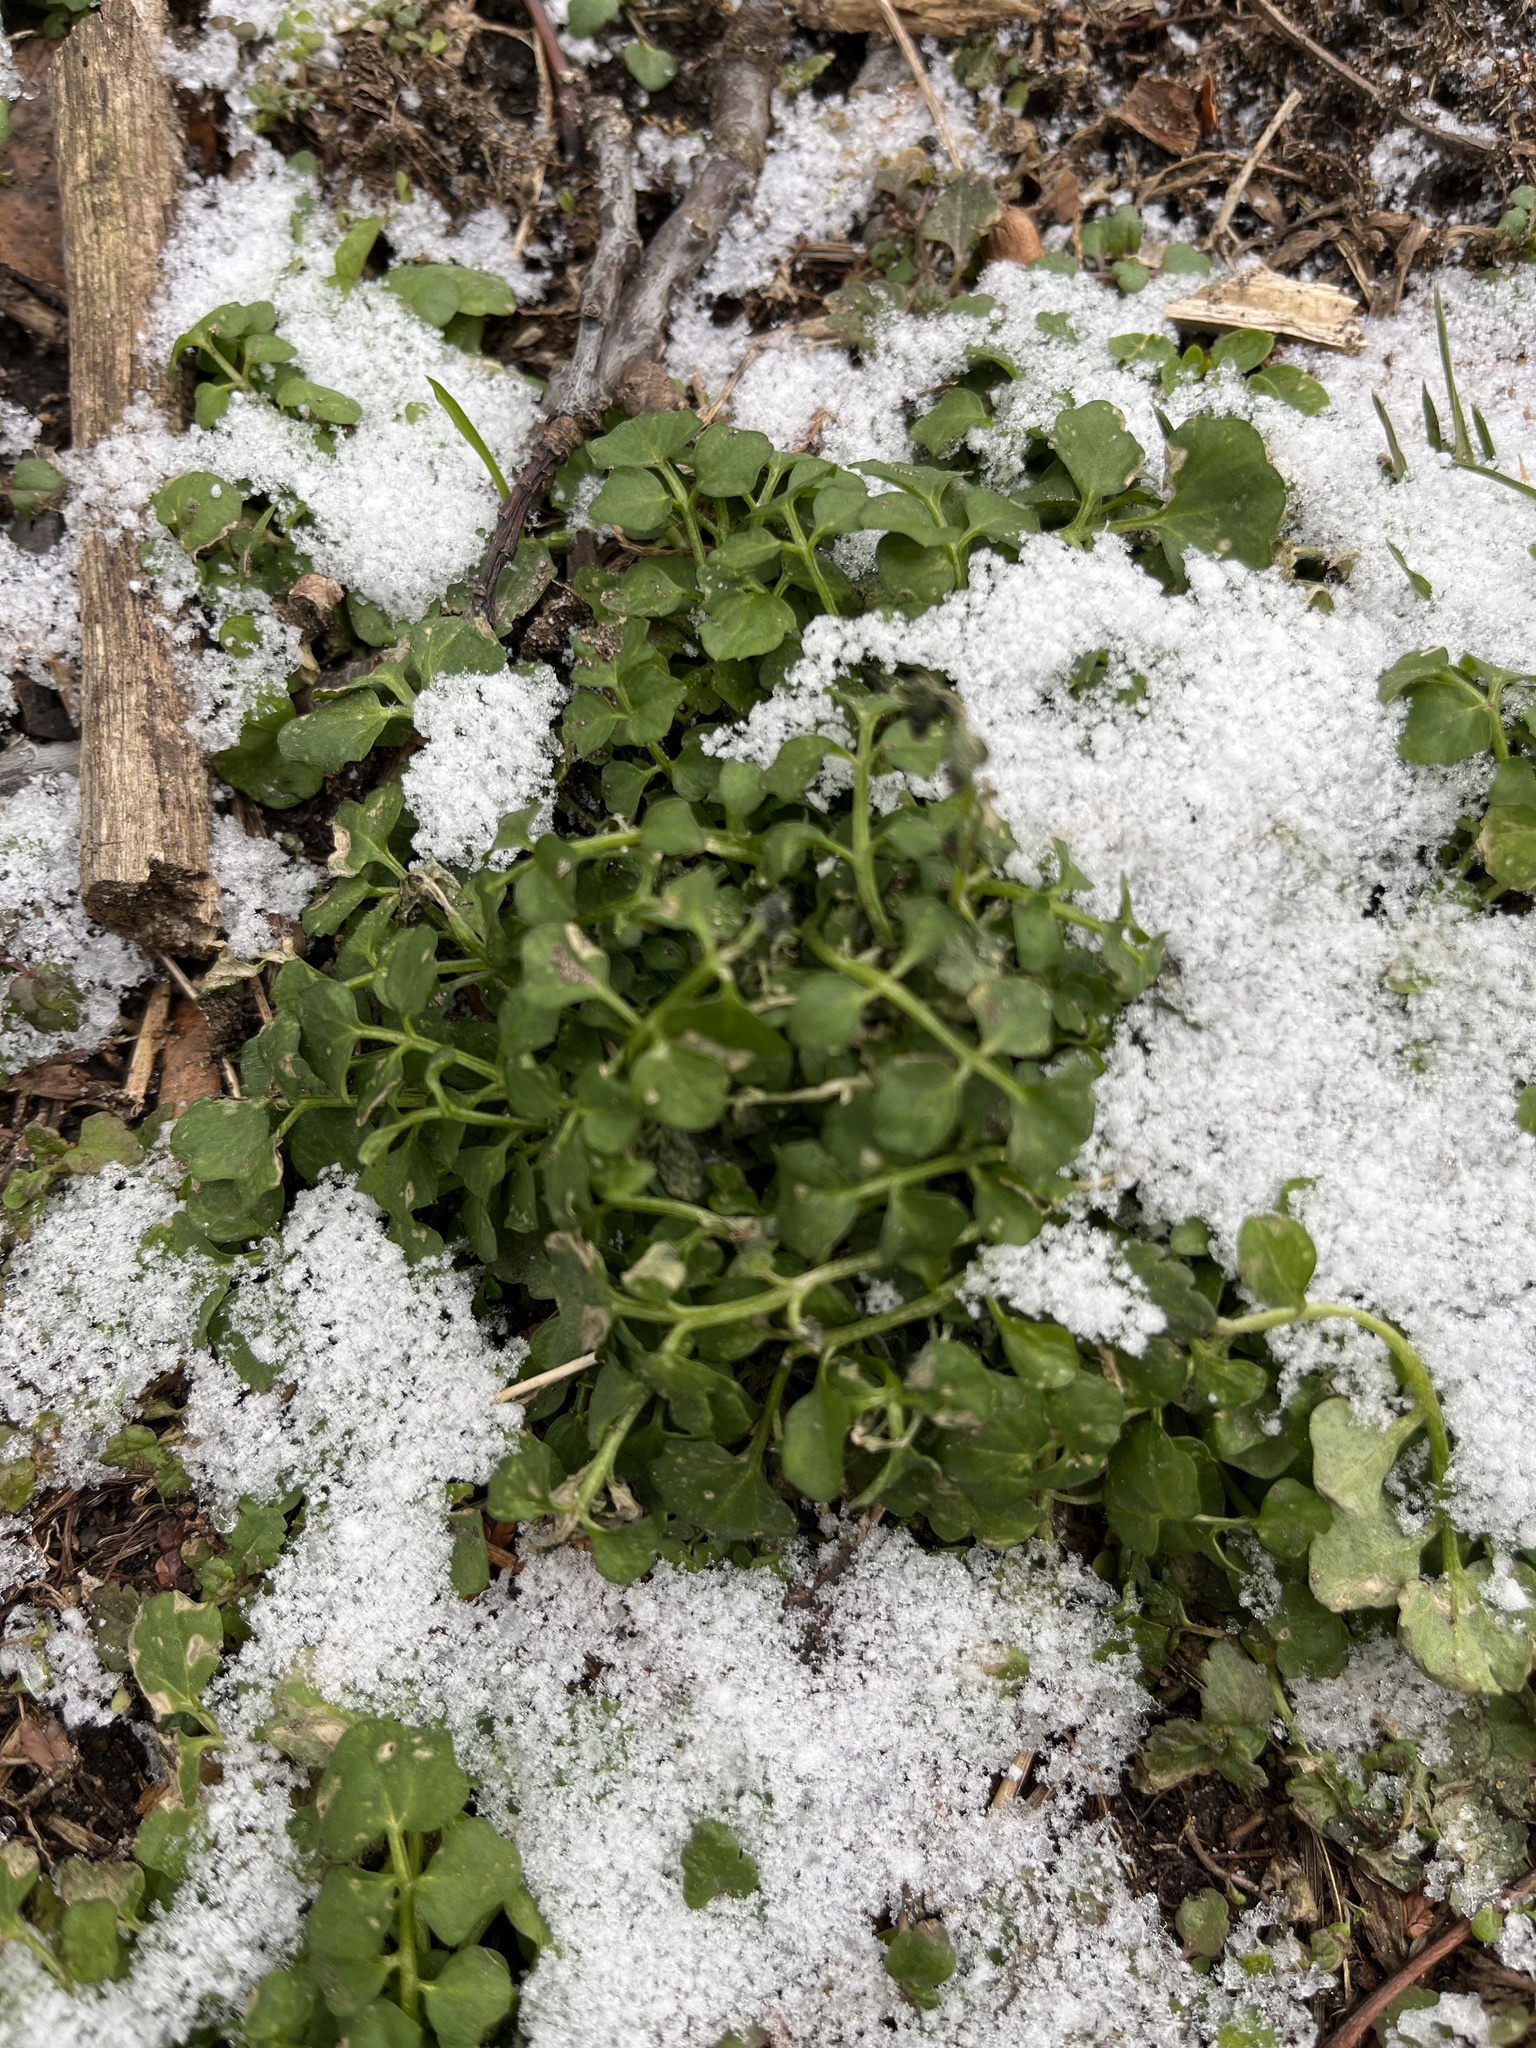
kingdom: Plantae
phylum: Tracheophyta
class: Magnoliopsida
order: Brassicales
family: Brassicaceae
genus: Cardamine
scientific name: Cardamine hirsuta
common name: Hairy bittercress
